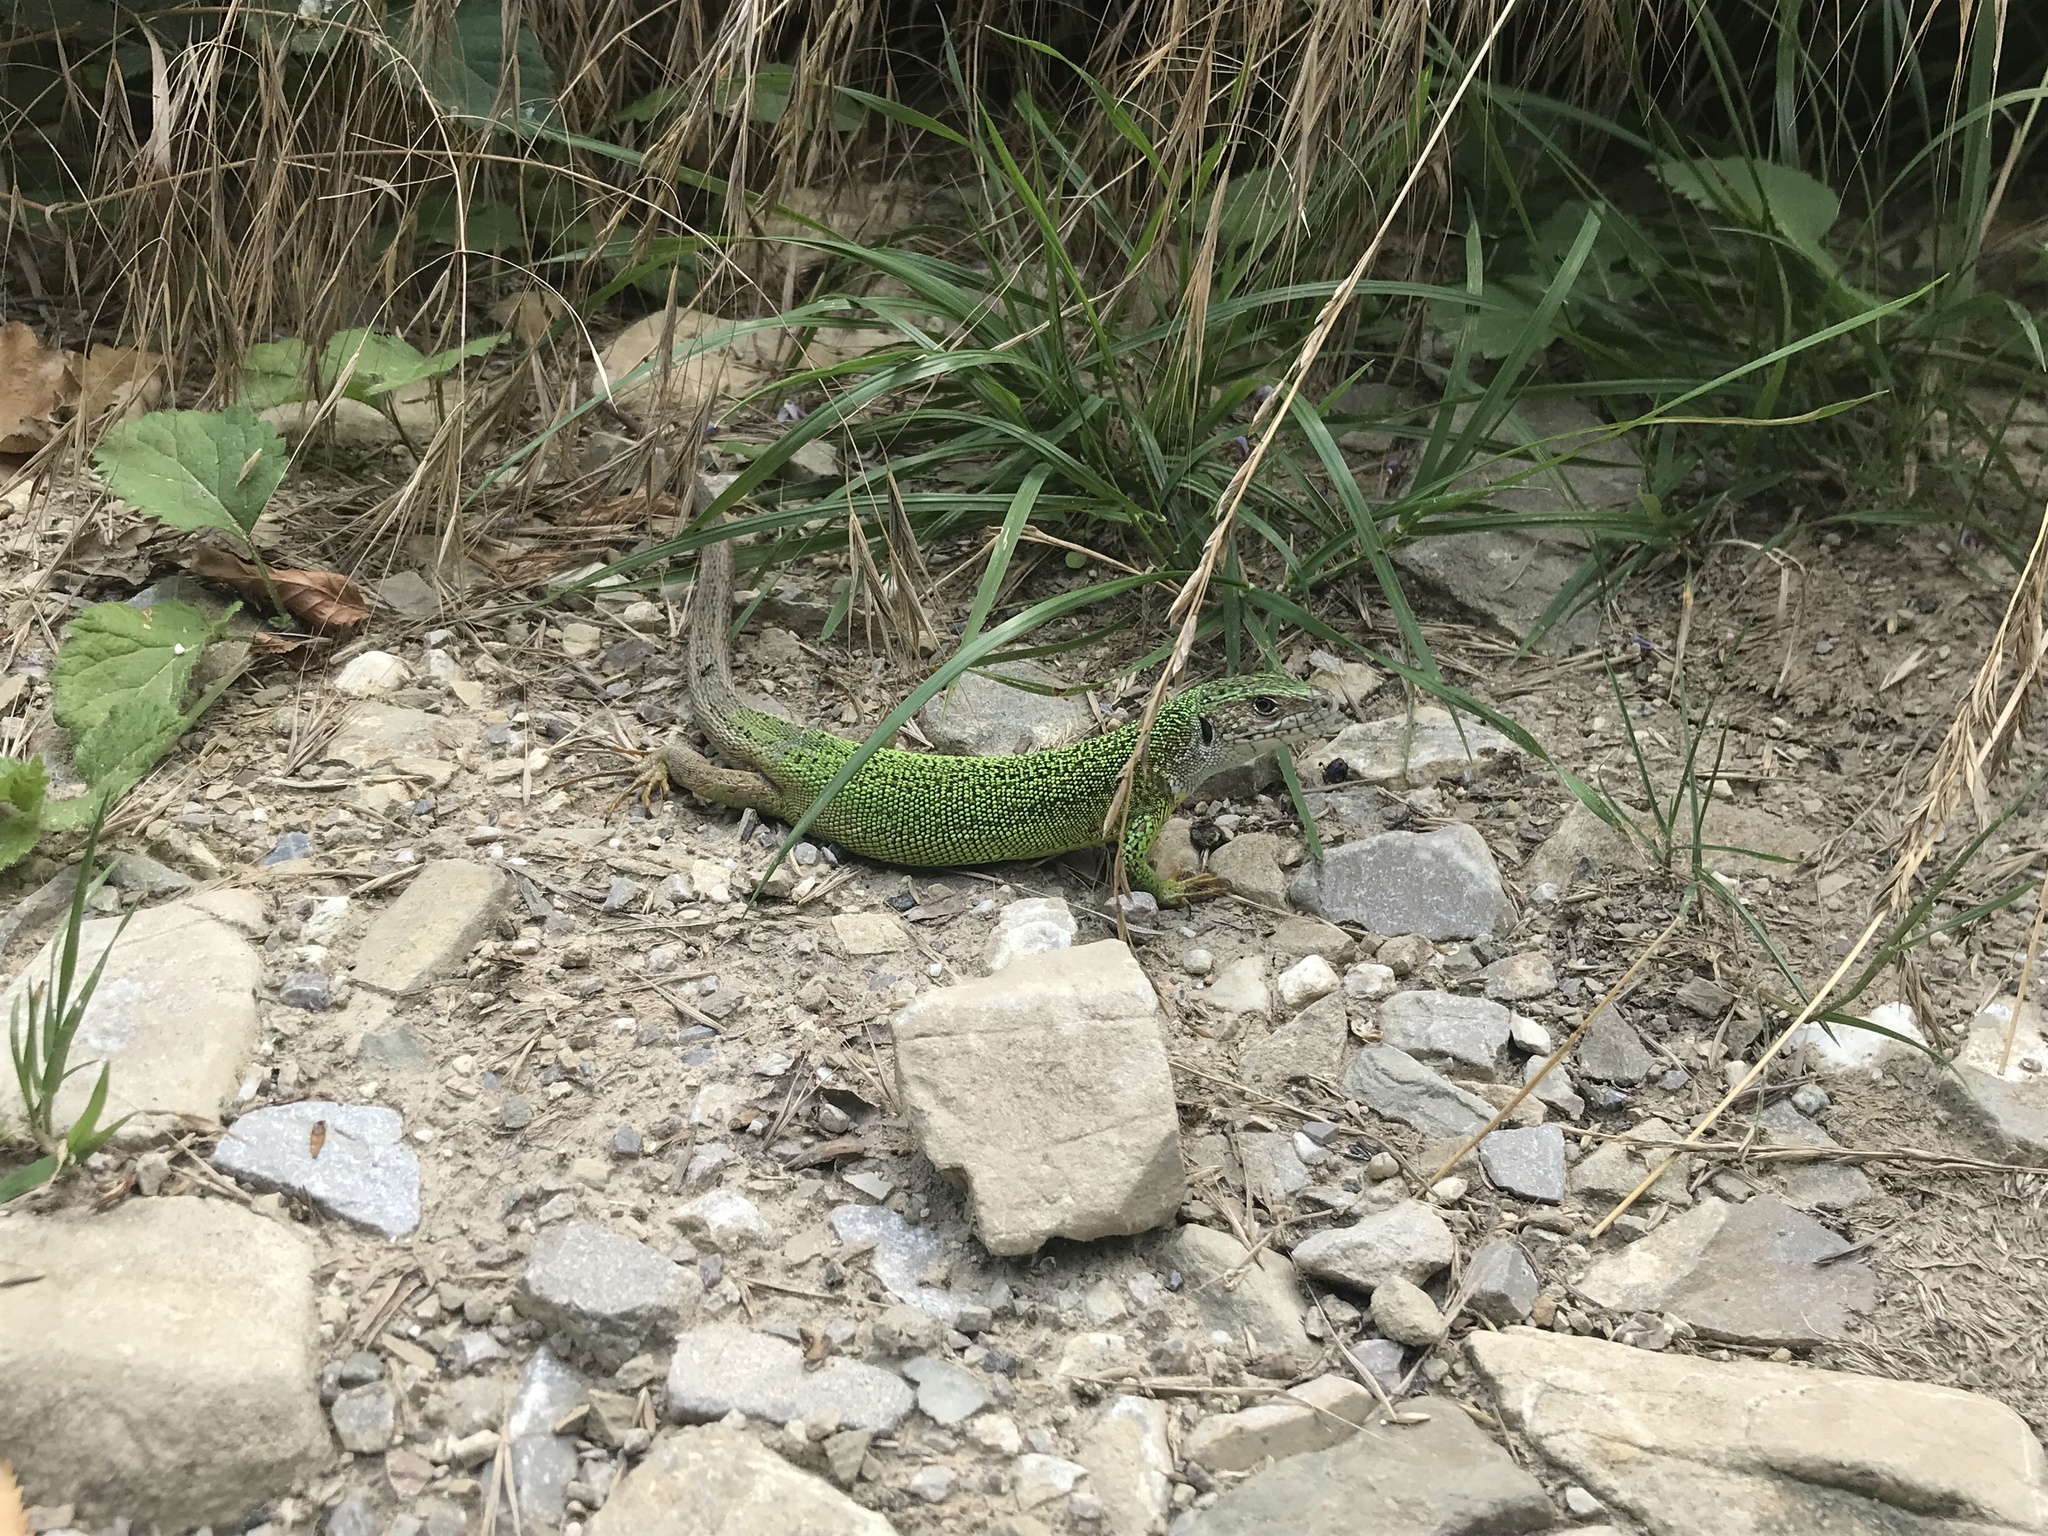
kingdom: Animalia
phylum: Chordata
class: Squamata
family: Lacertidae
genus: Lacerta
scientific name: Lacerta viridis
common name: European green lizard
